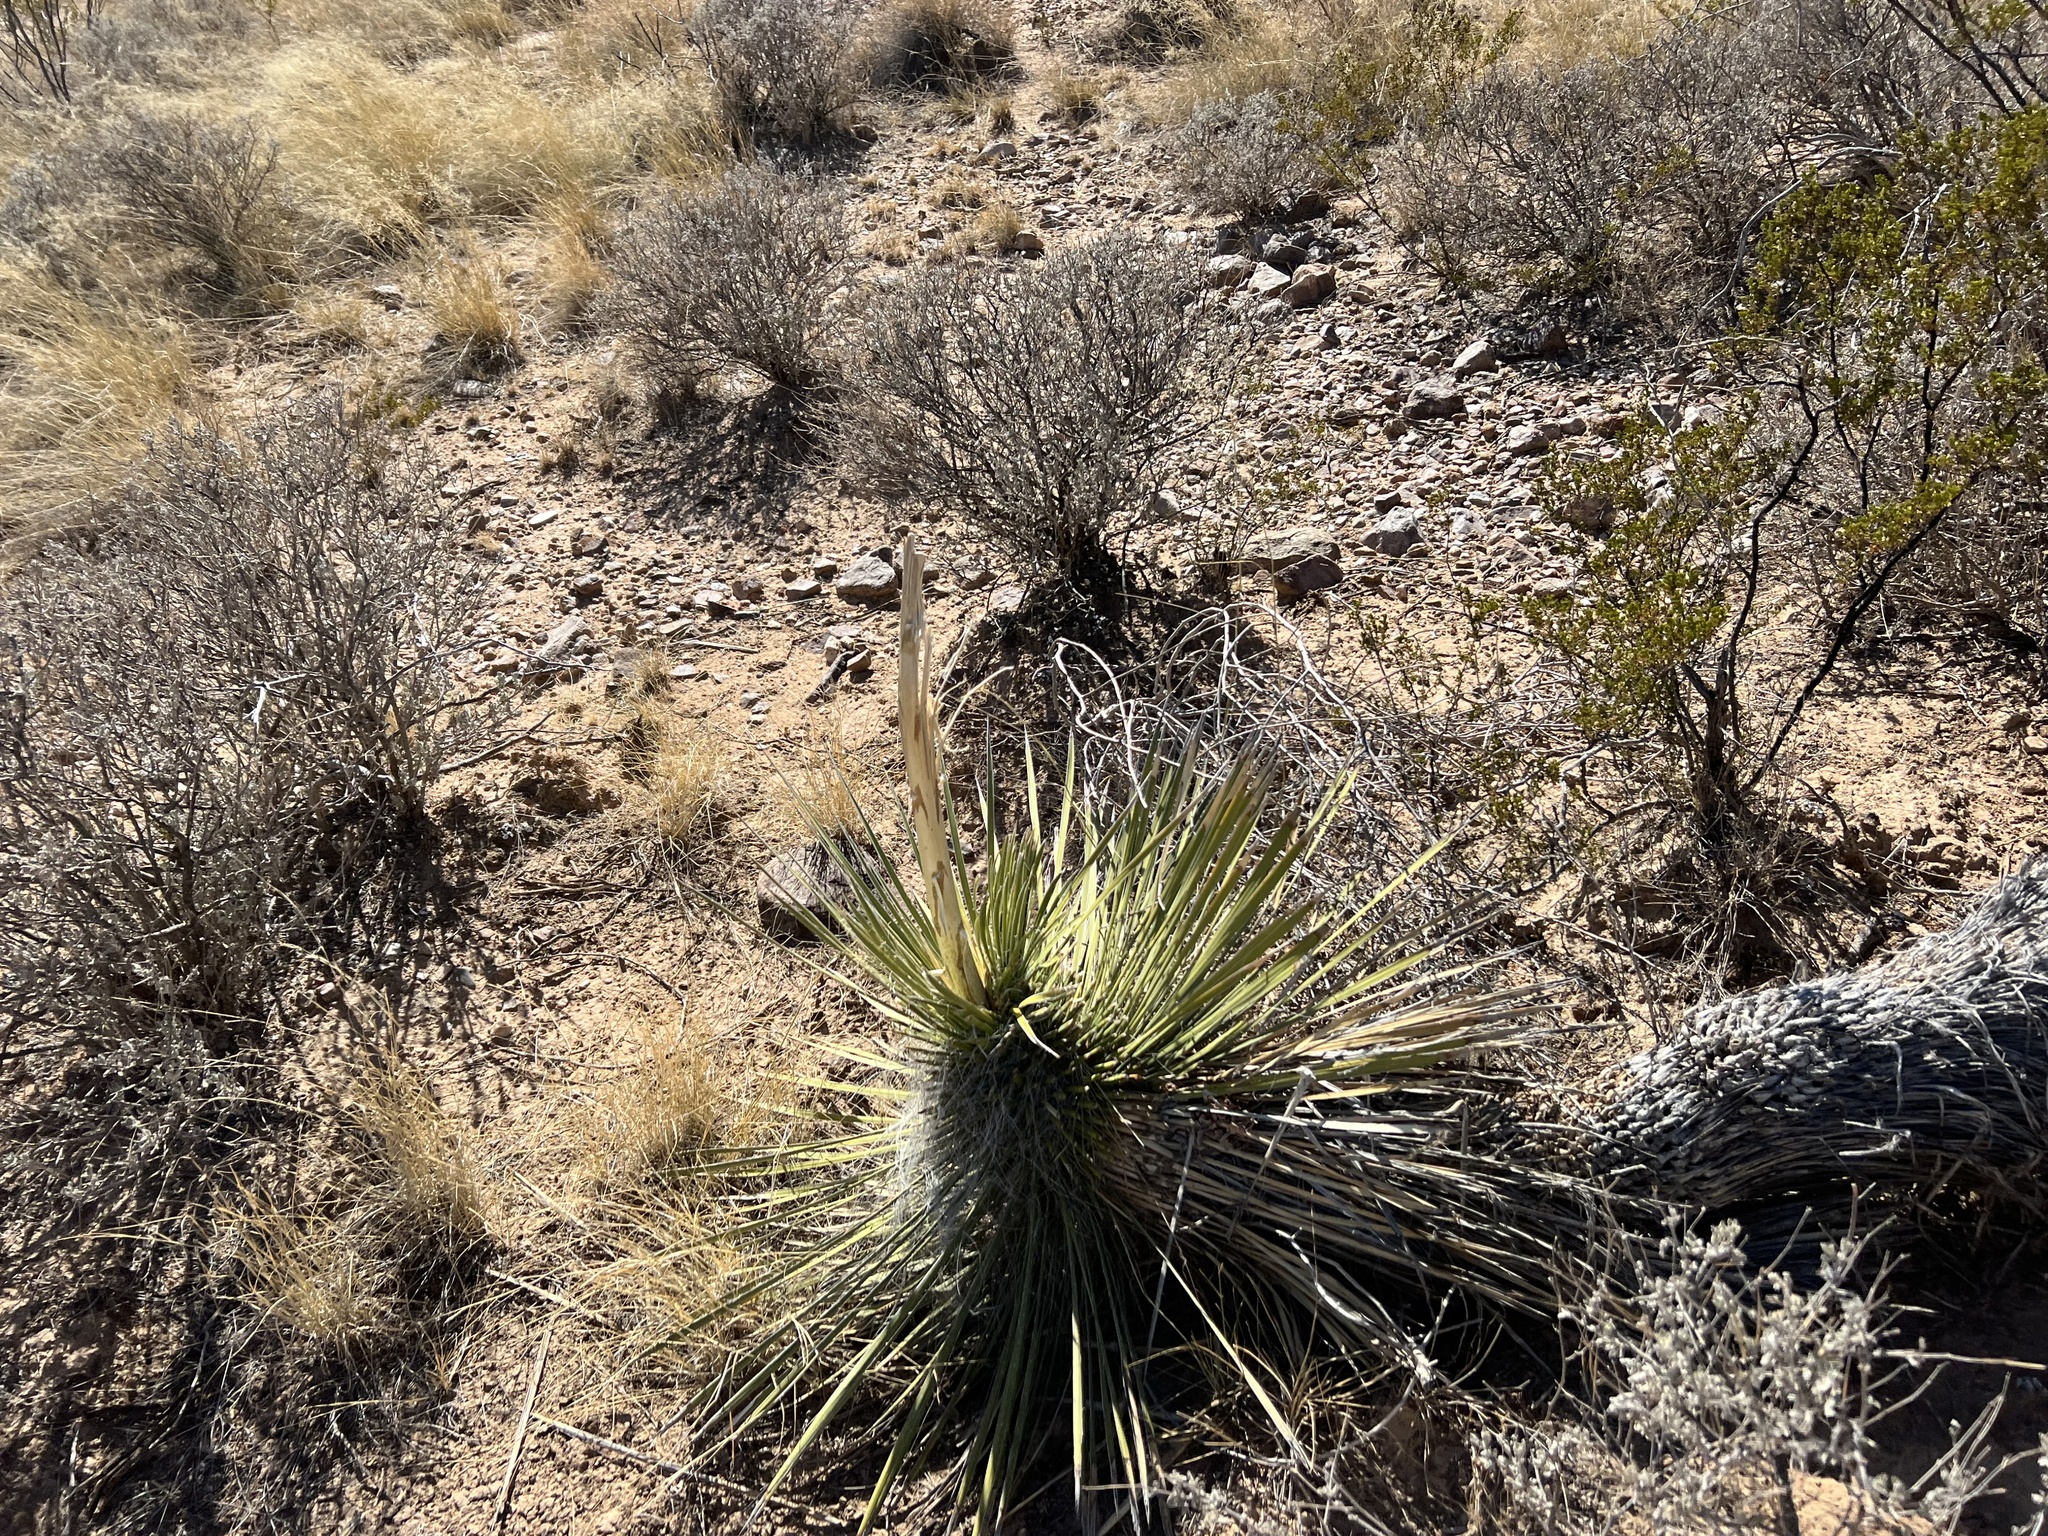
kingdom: Plantae
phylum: Tracheophyta
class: Liliopsida
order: Asparagales
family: Asparagaceae
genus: Yucca
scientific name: Yucca elata
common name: Palmella
